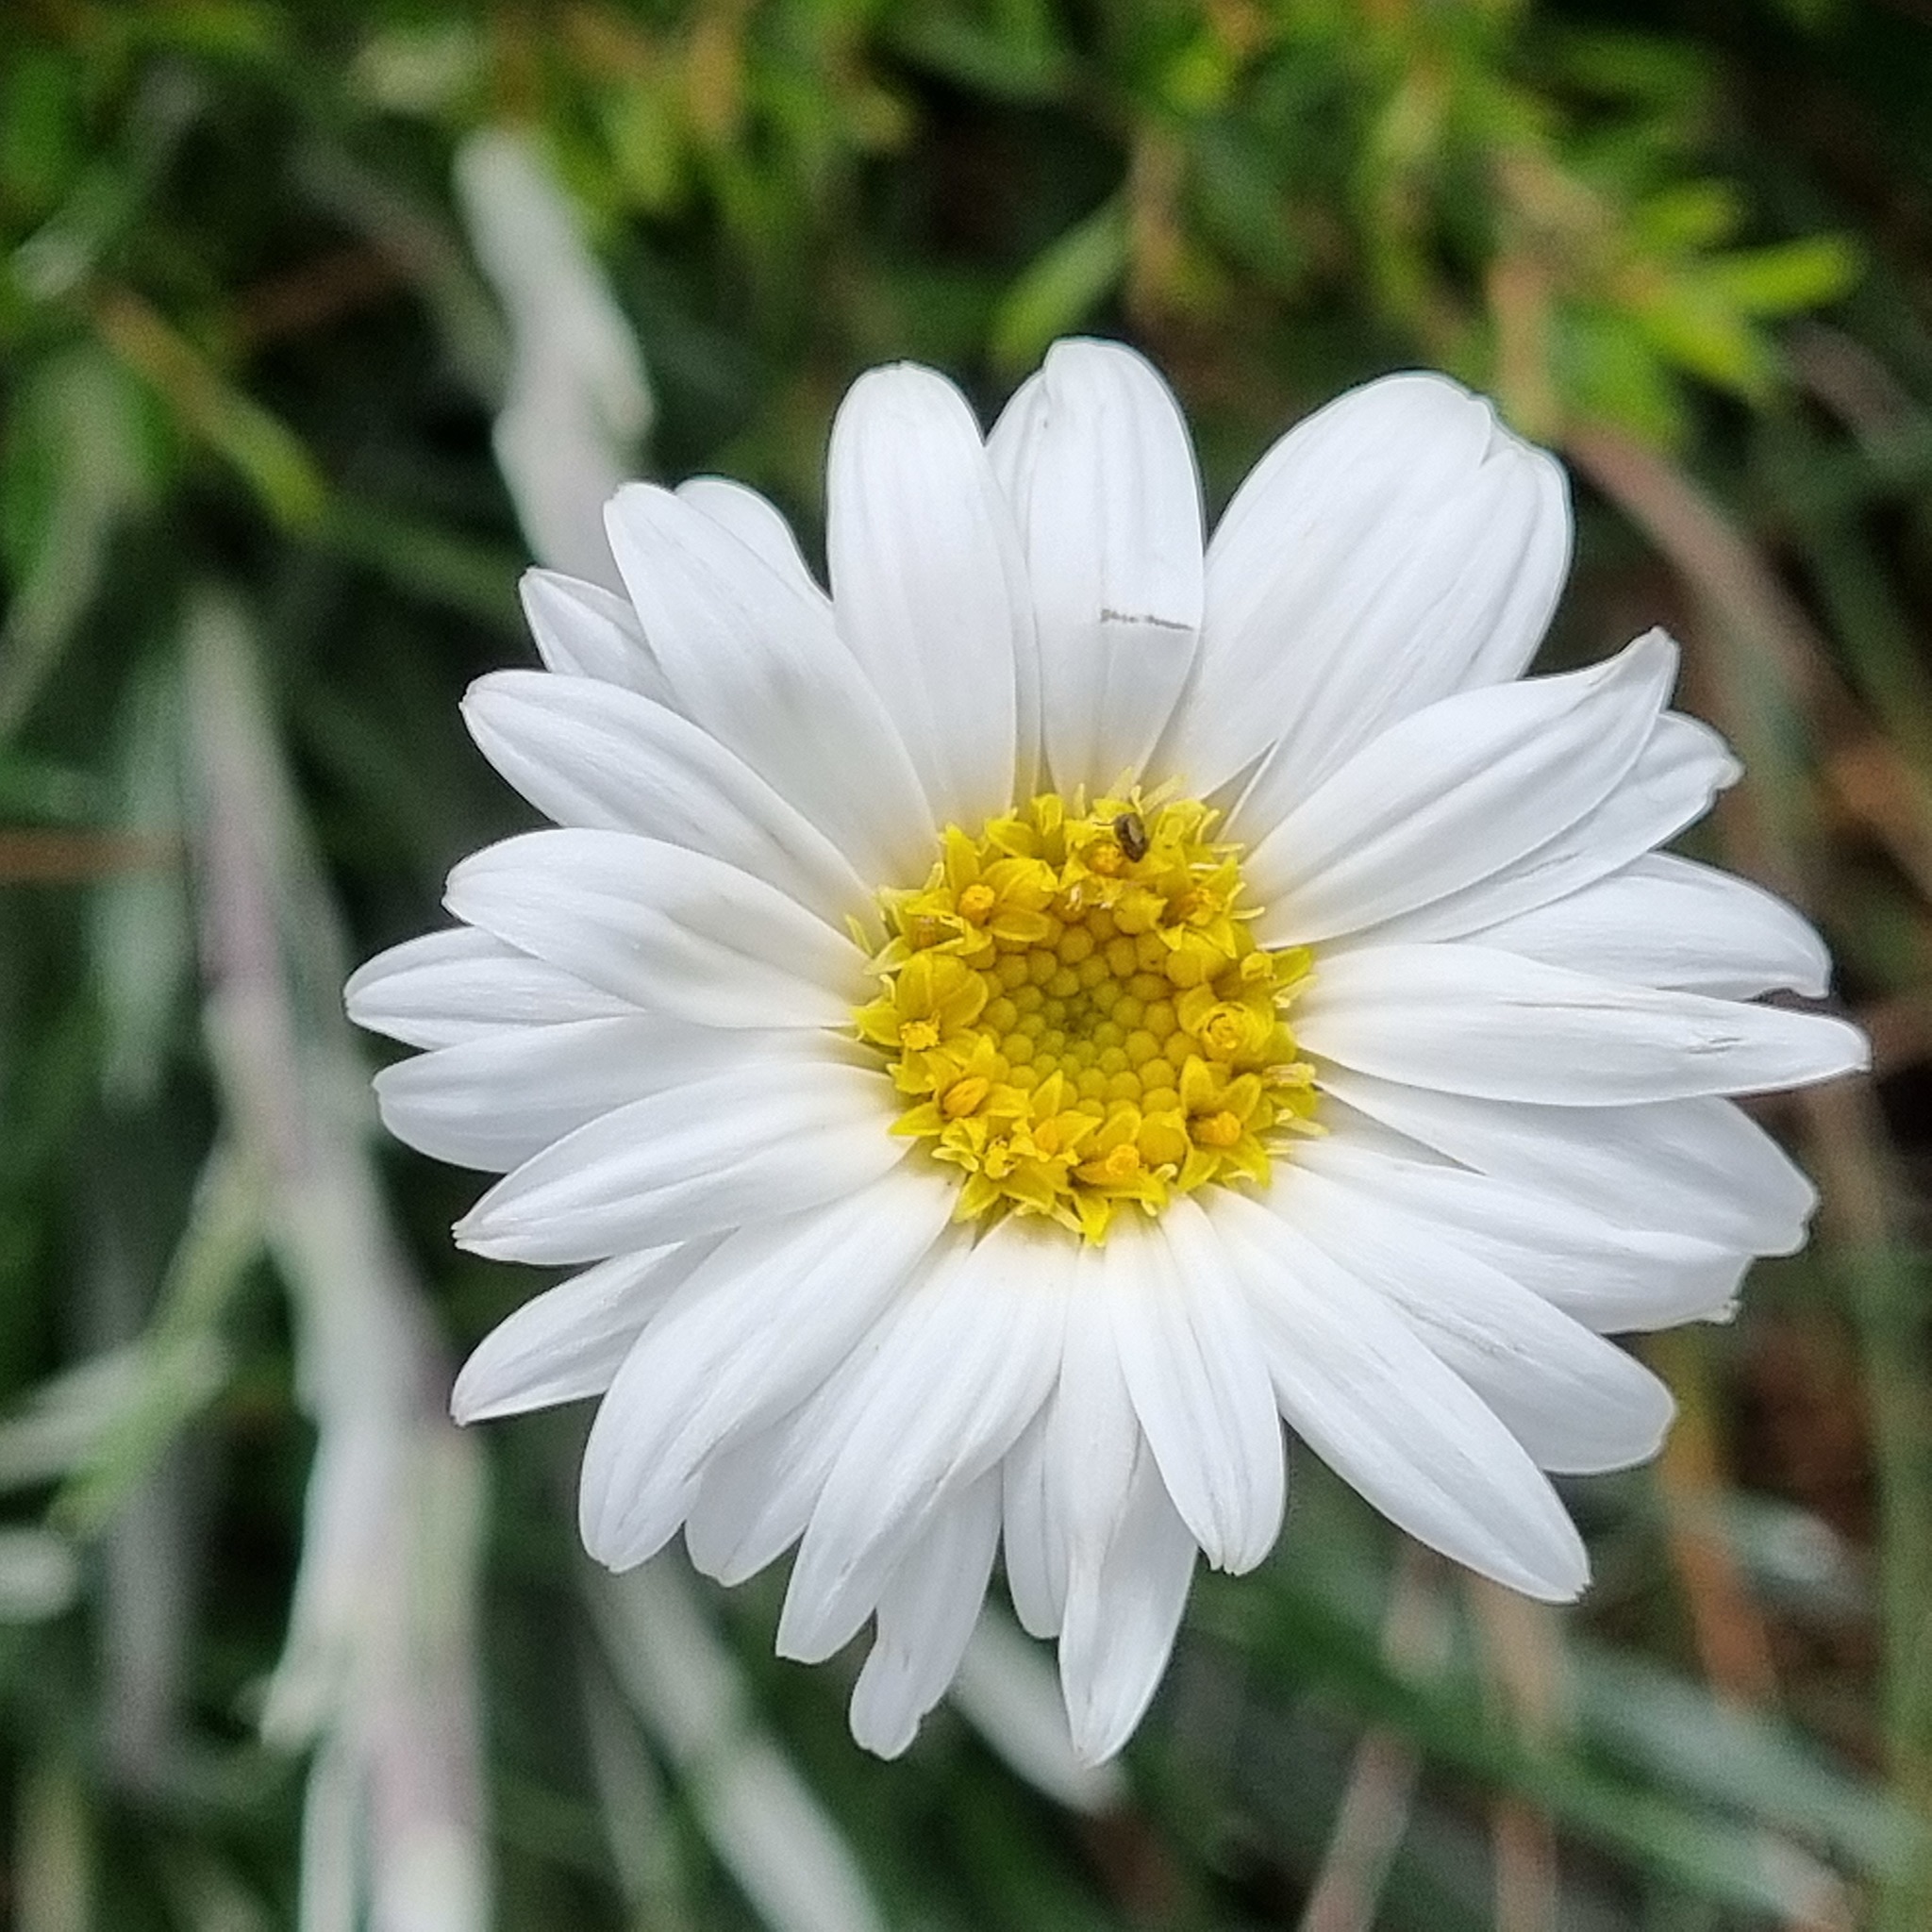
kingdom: Plantae
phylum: Tracheophyta
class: Magnoliopsida
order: Asterales
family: Asteraceae
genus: Celmisia
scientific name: Celmisia costiniana
